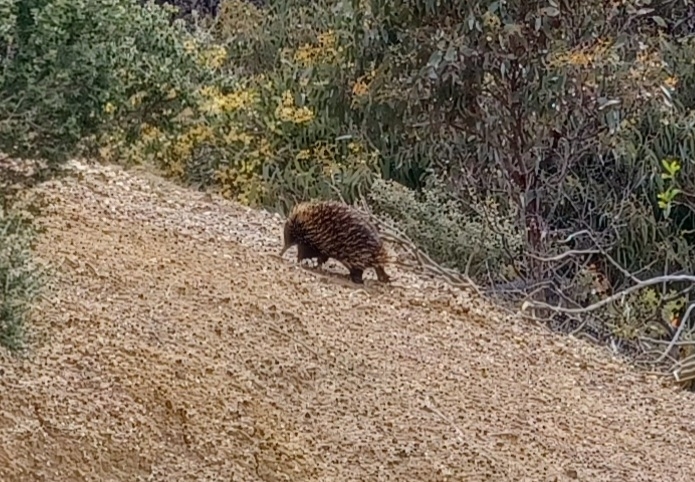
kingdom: Animalia
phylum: Chordata
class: Mammalia
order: Monotremata
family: Tachyglossidae
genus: Tachyglossus
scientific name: Tachyglossus aculeatus
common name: Short-beaked echidna
